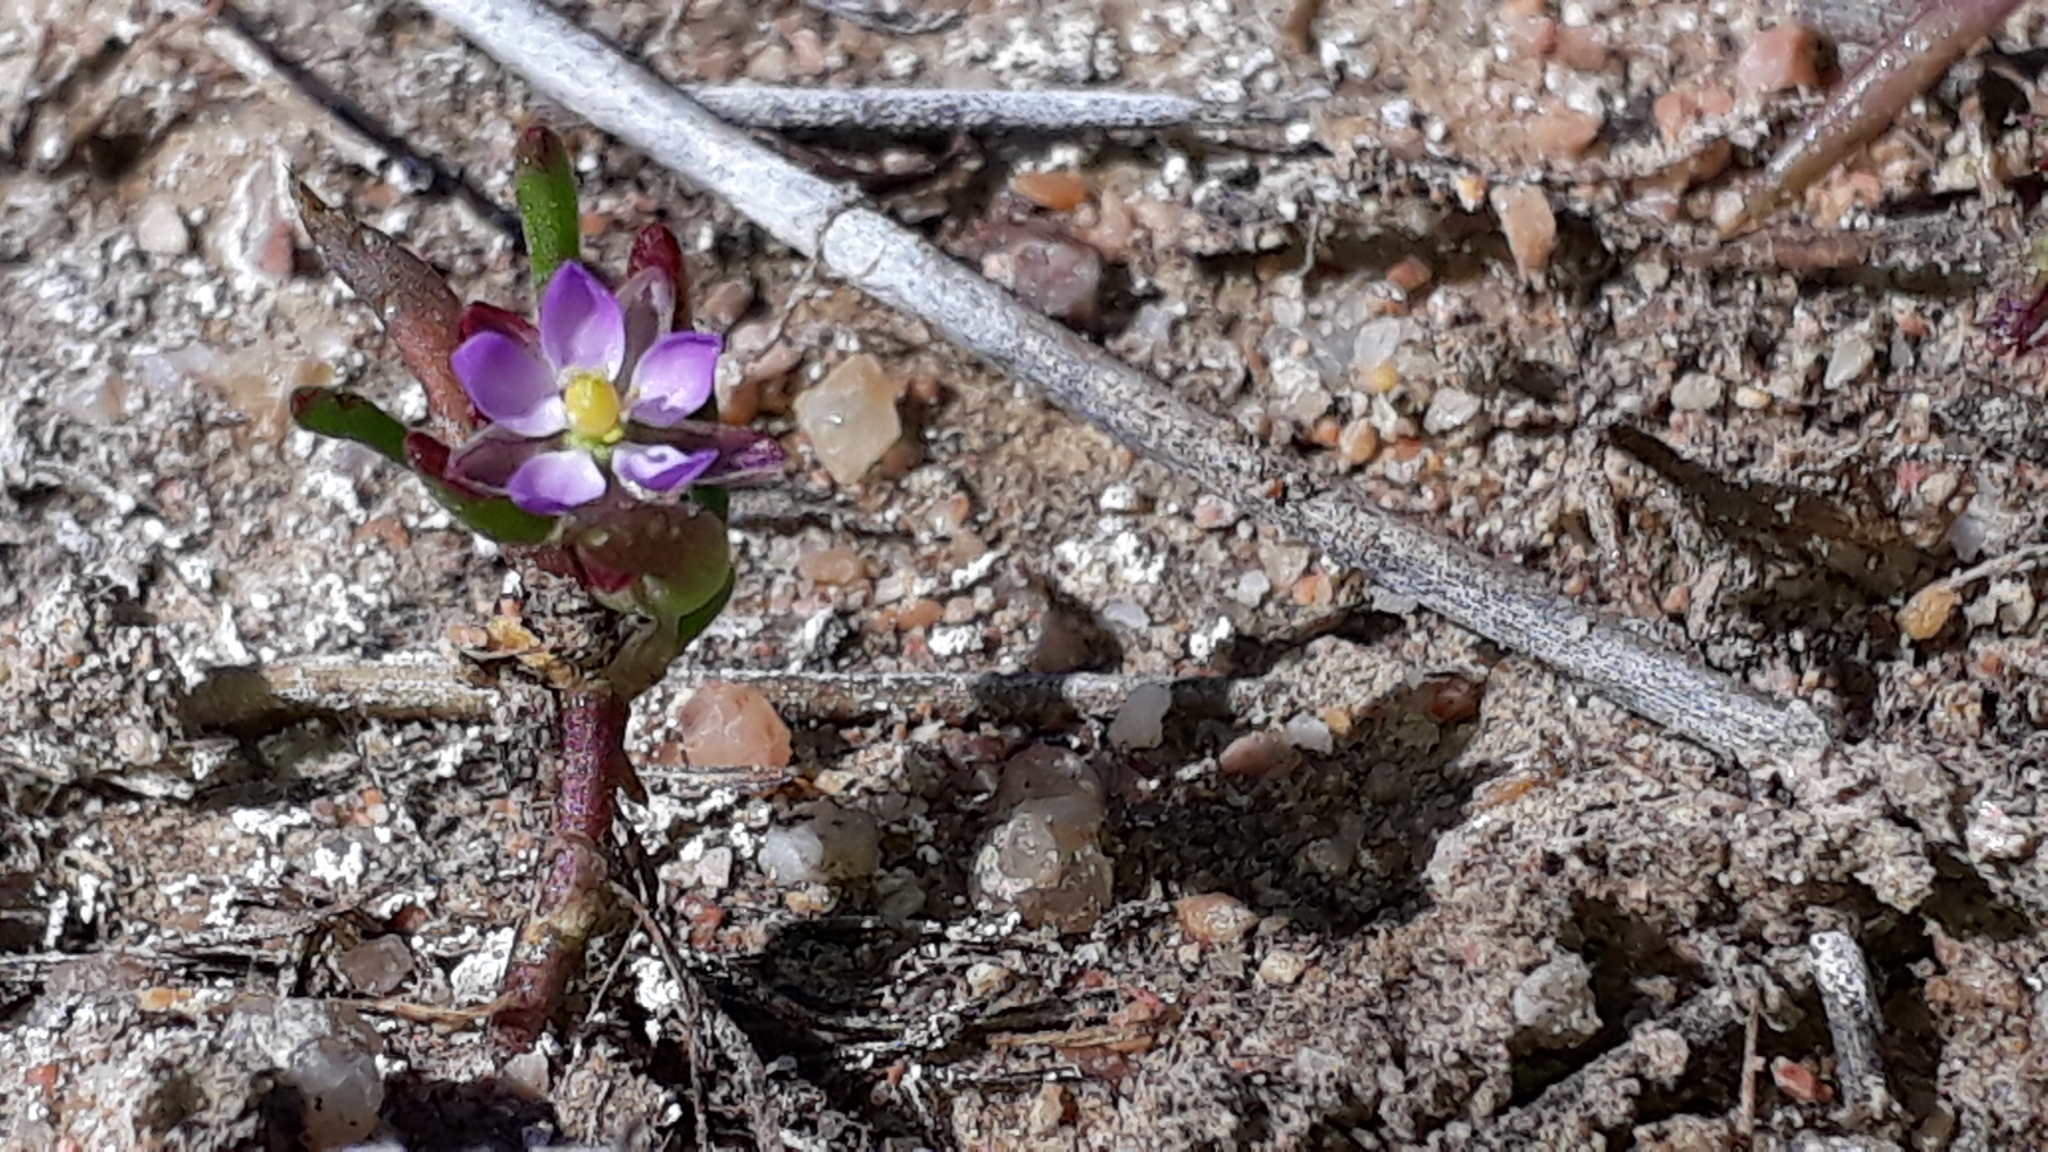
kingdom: Plantae
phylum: Tracheophyta
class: Magnoliopsida
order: Caryophyllales
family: Caryophyllaceae
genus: Spergularia
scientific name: Spergularia rubra
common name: Red sand-spurrey
